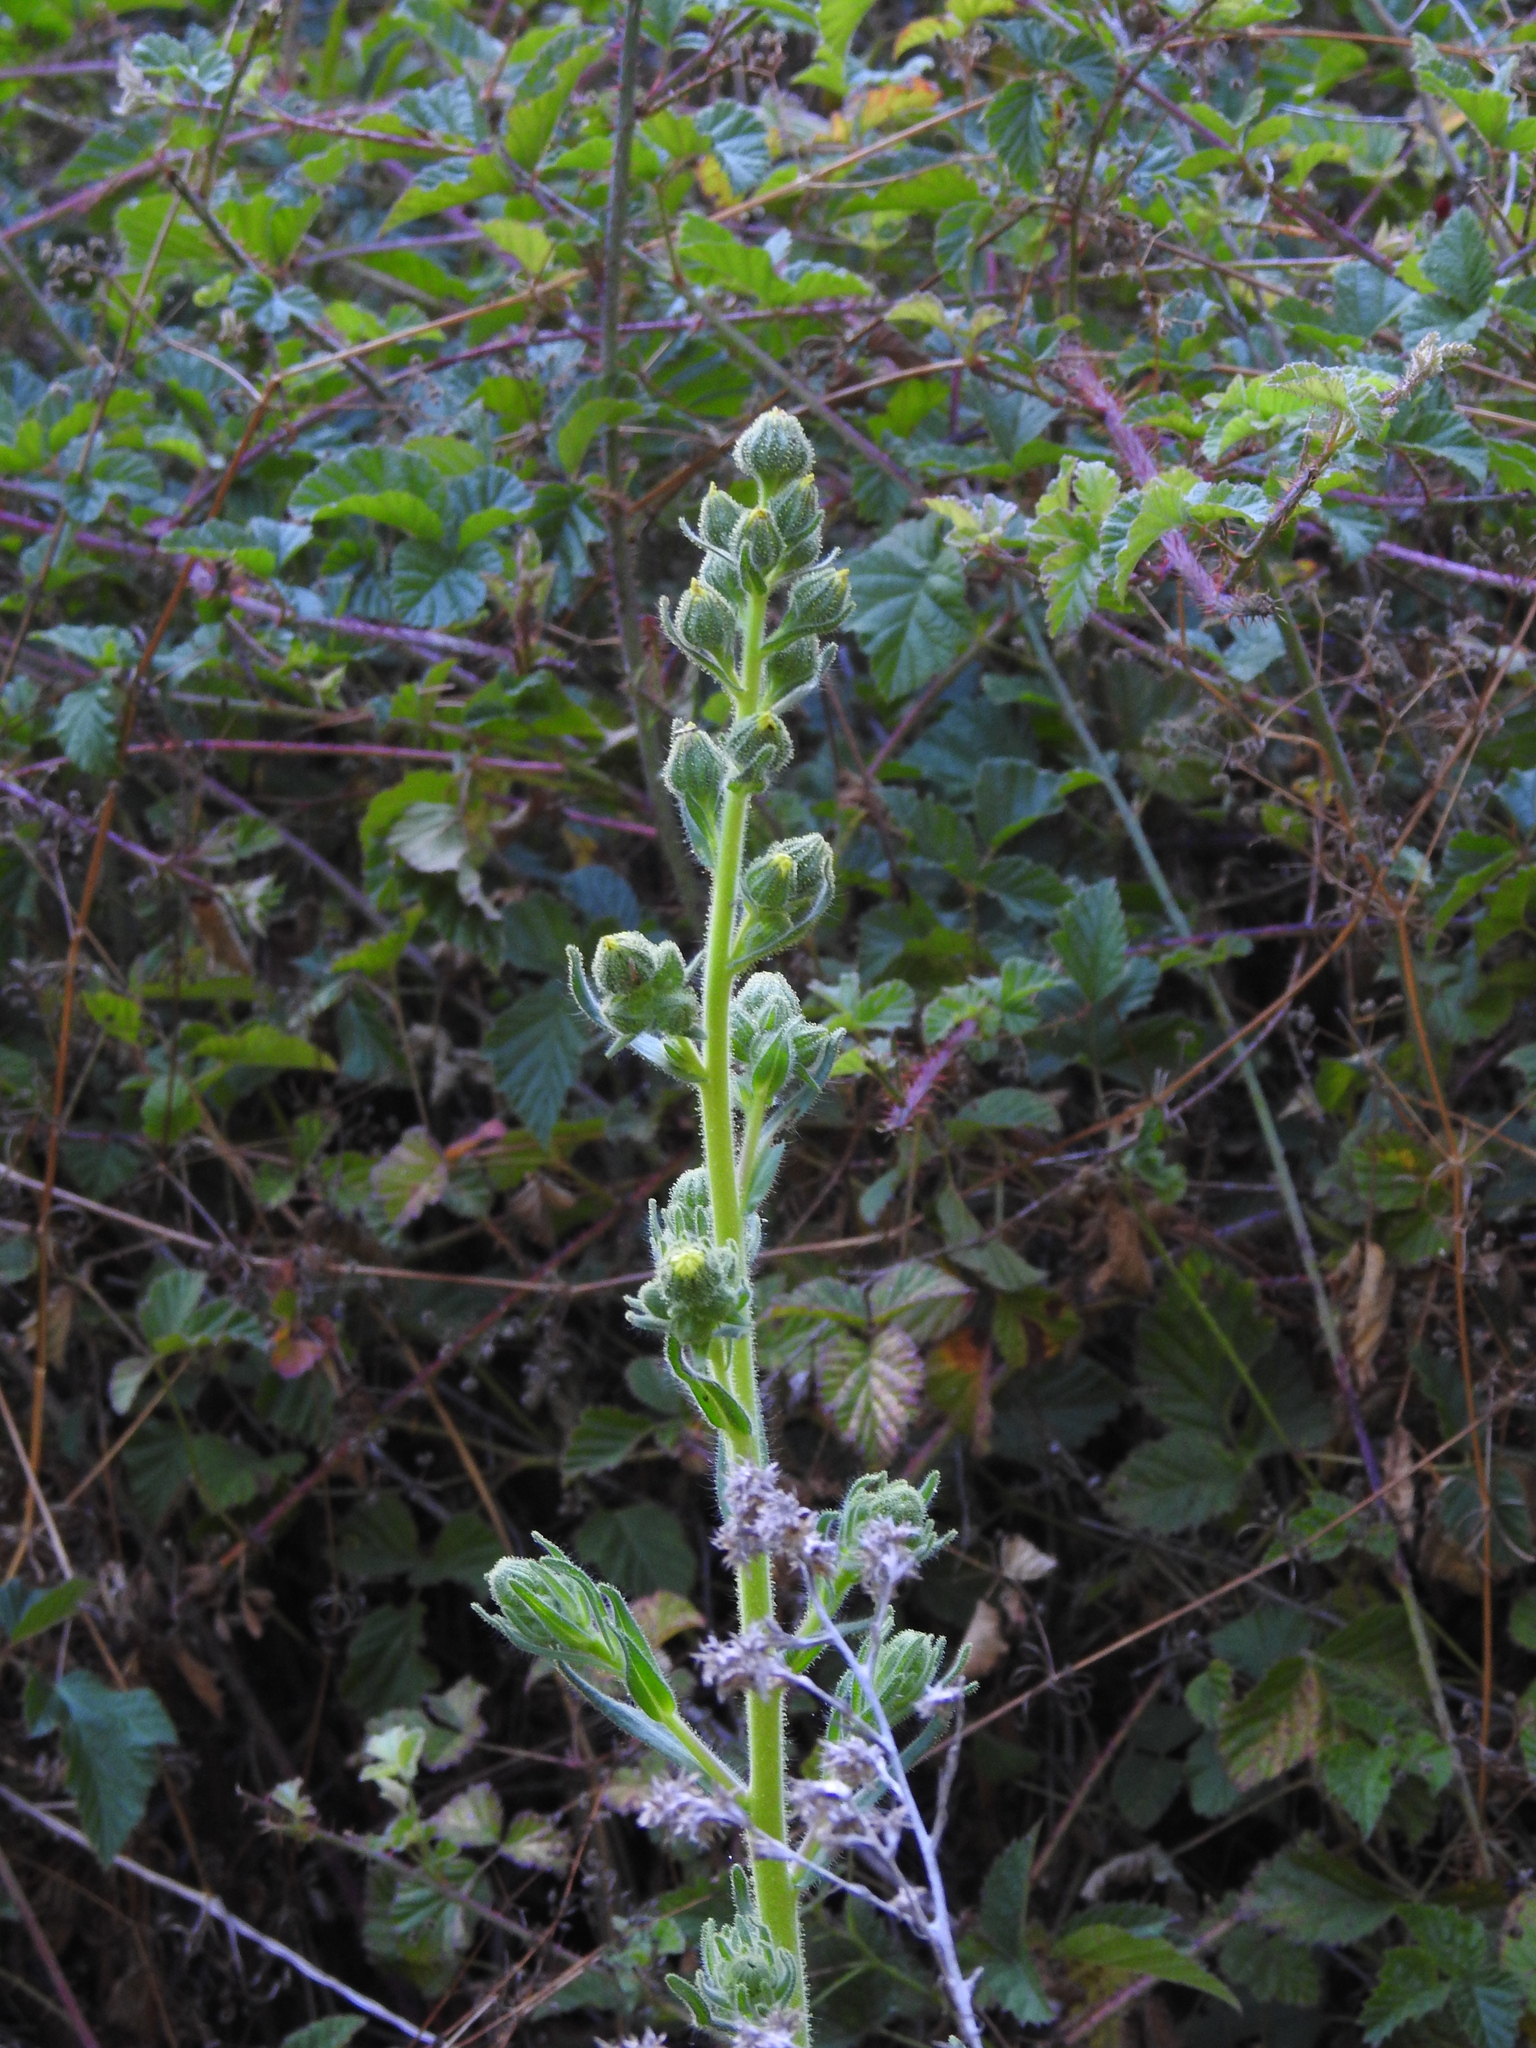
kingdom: Plantae
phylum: Tracheophyta
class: Magnoliopsida
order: Asterales
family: Asteraceae
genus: Madia
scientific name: Madia sativa
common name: Coast tarweed
